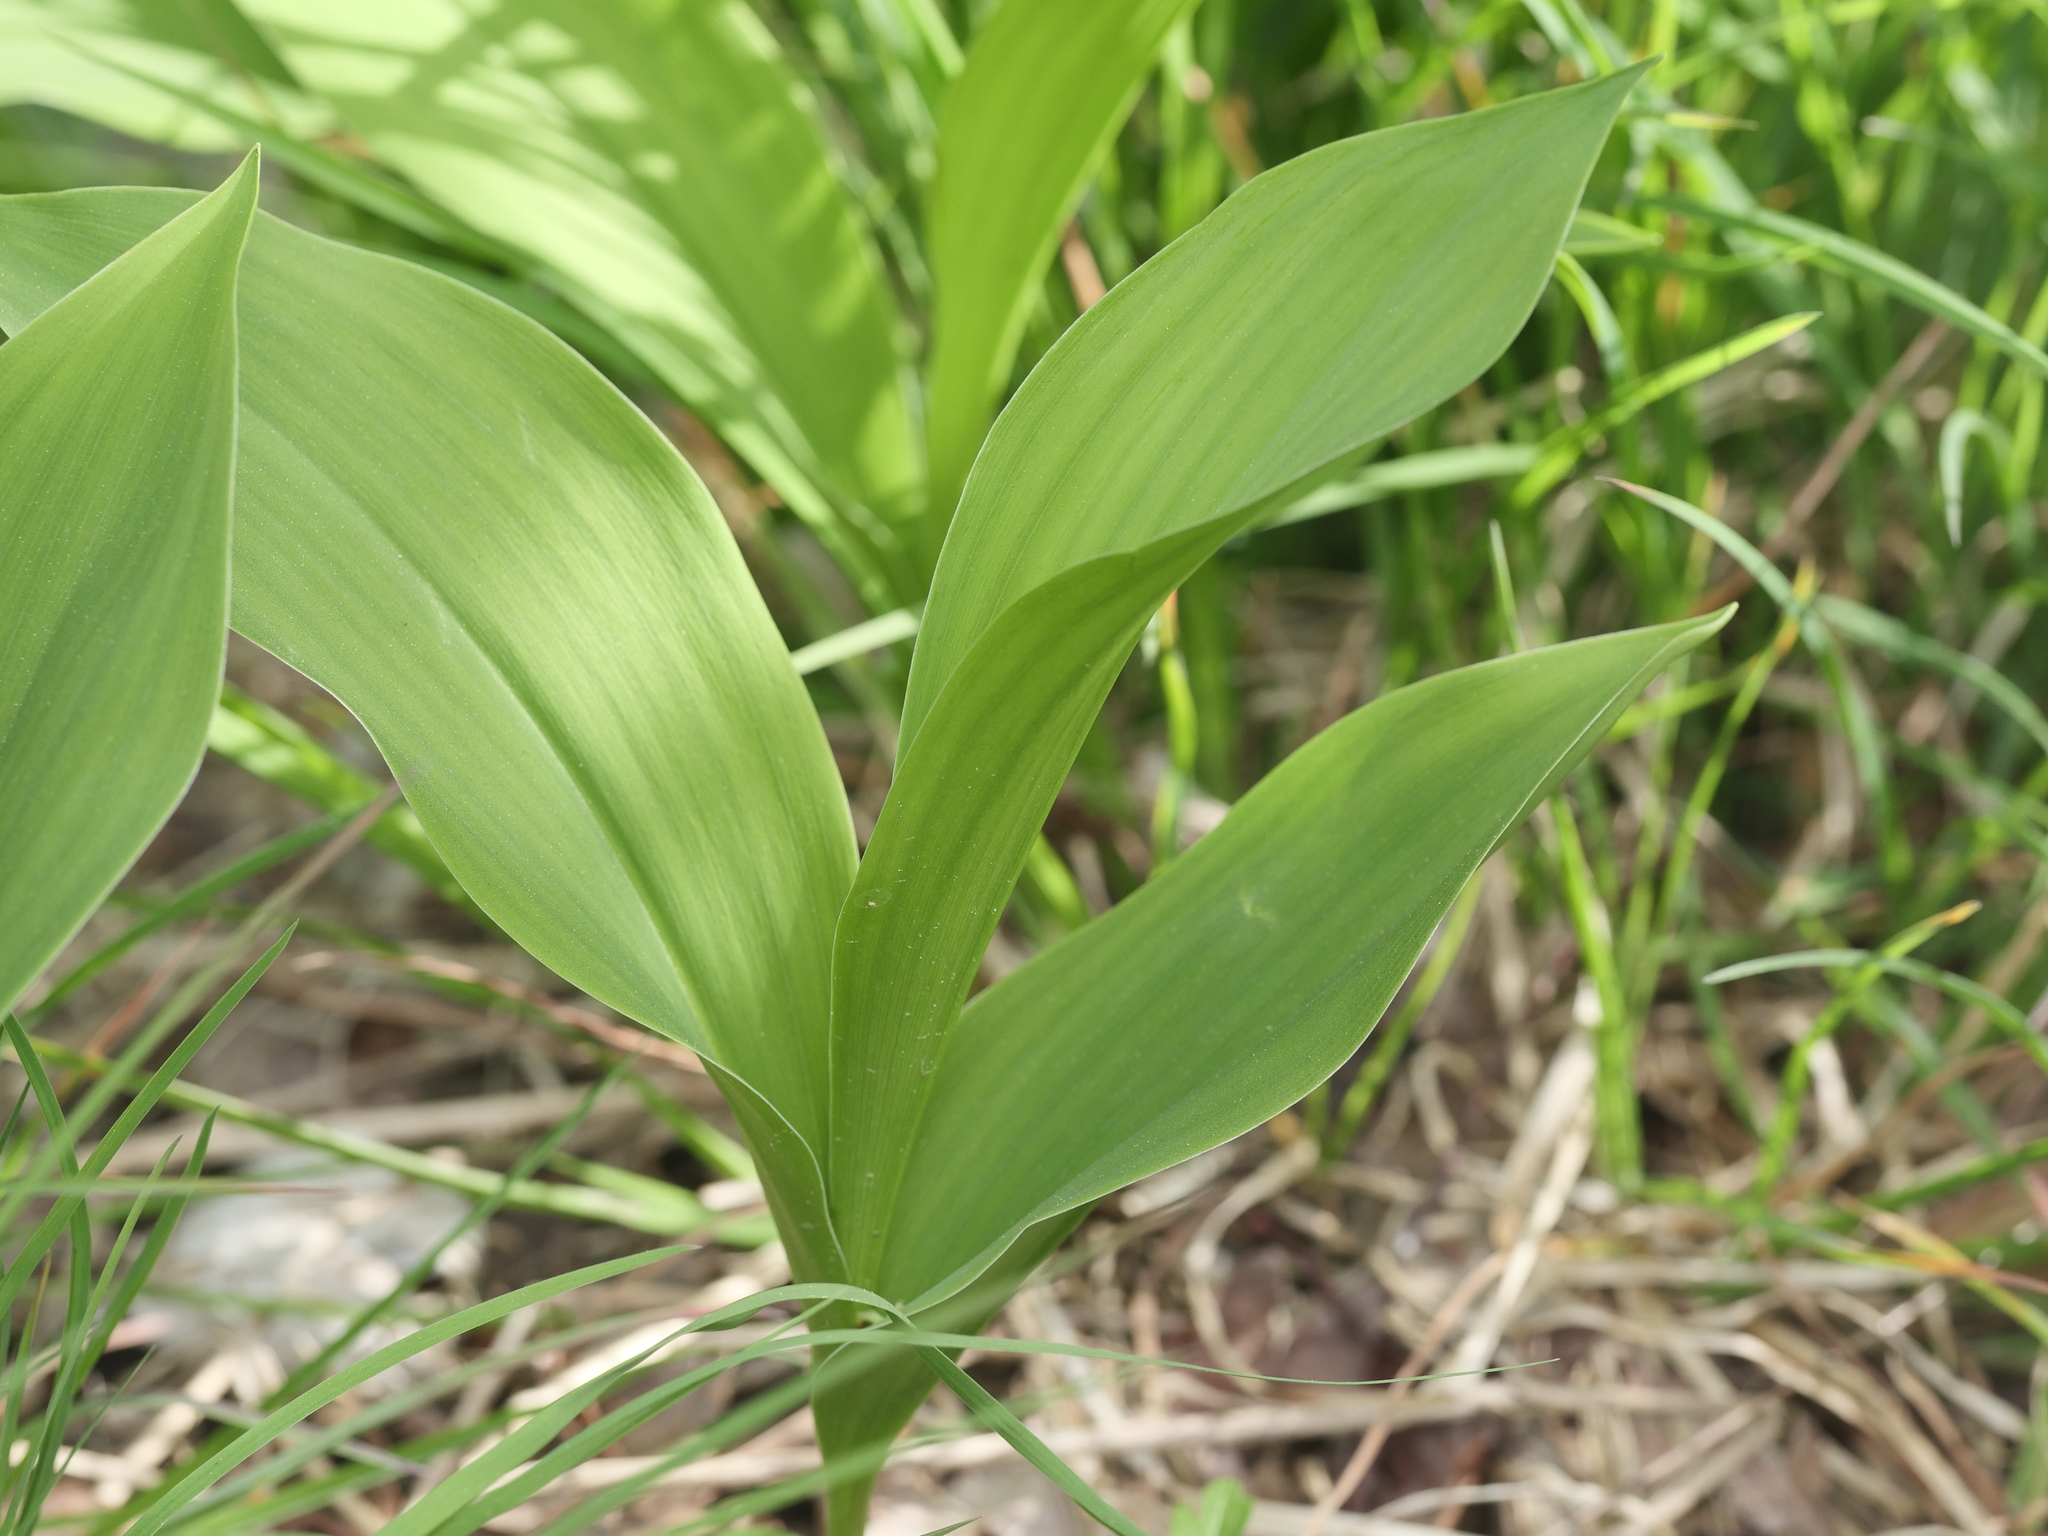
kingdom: Plantae
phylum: Tracheophyta
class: Liliopsida
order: Asparagales
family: Asparagaceae
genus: Convallaria
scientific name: Convallaria majalis
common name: Lily-of-the-valley
